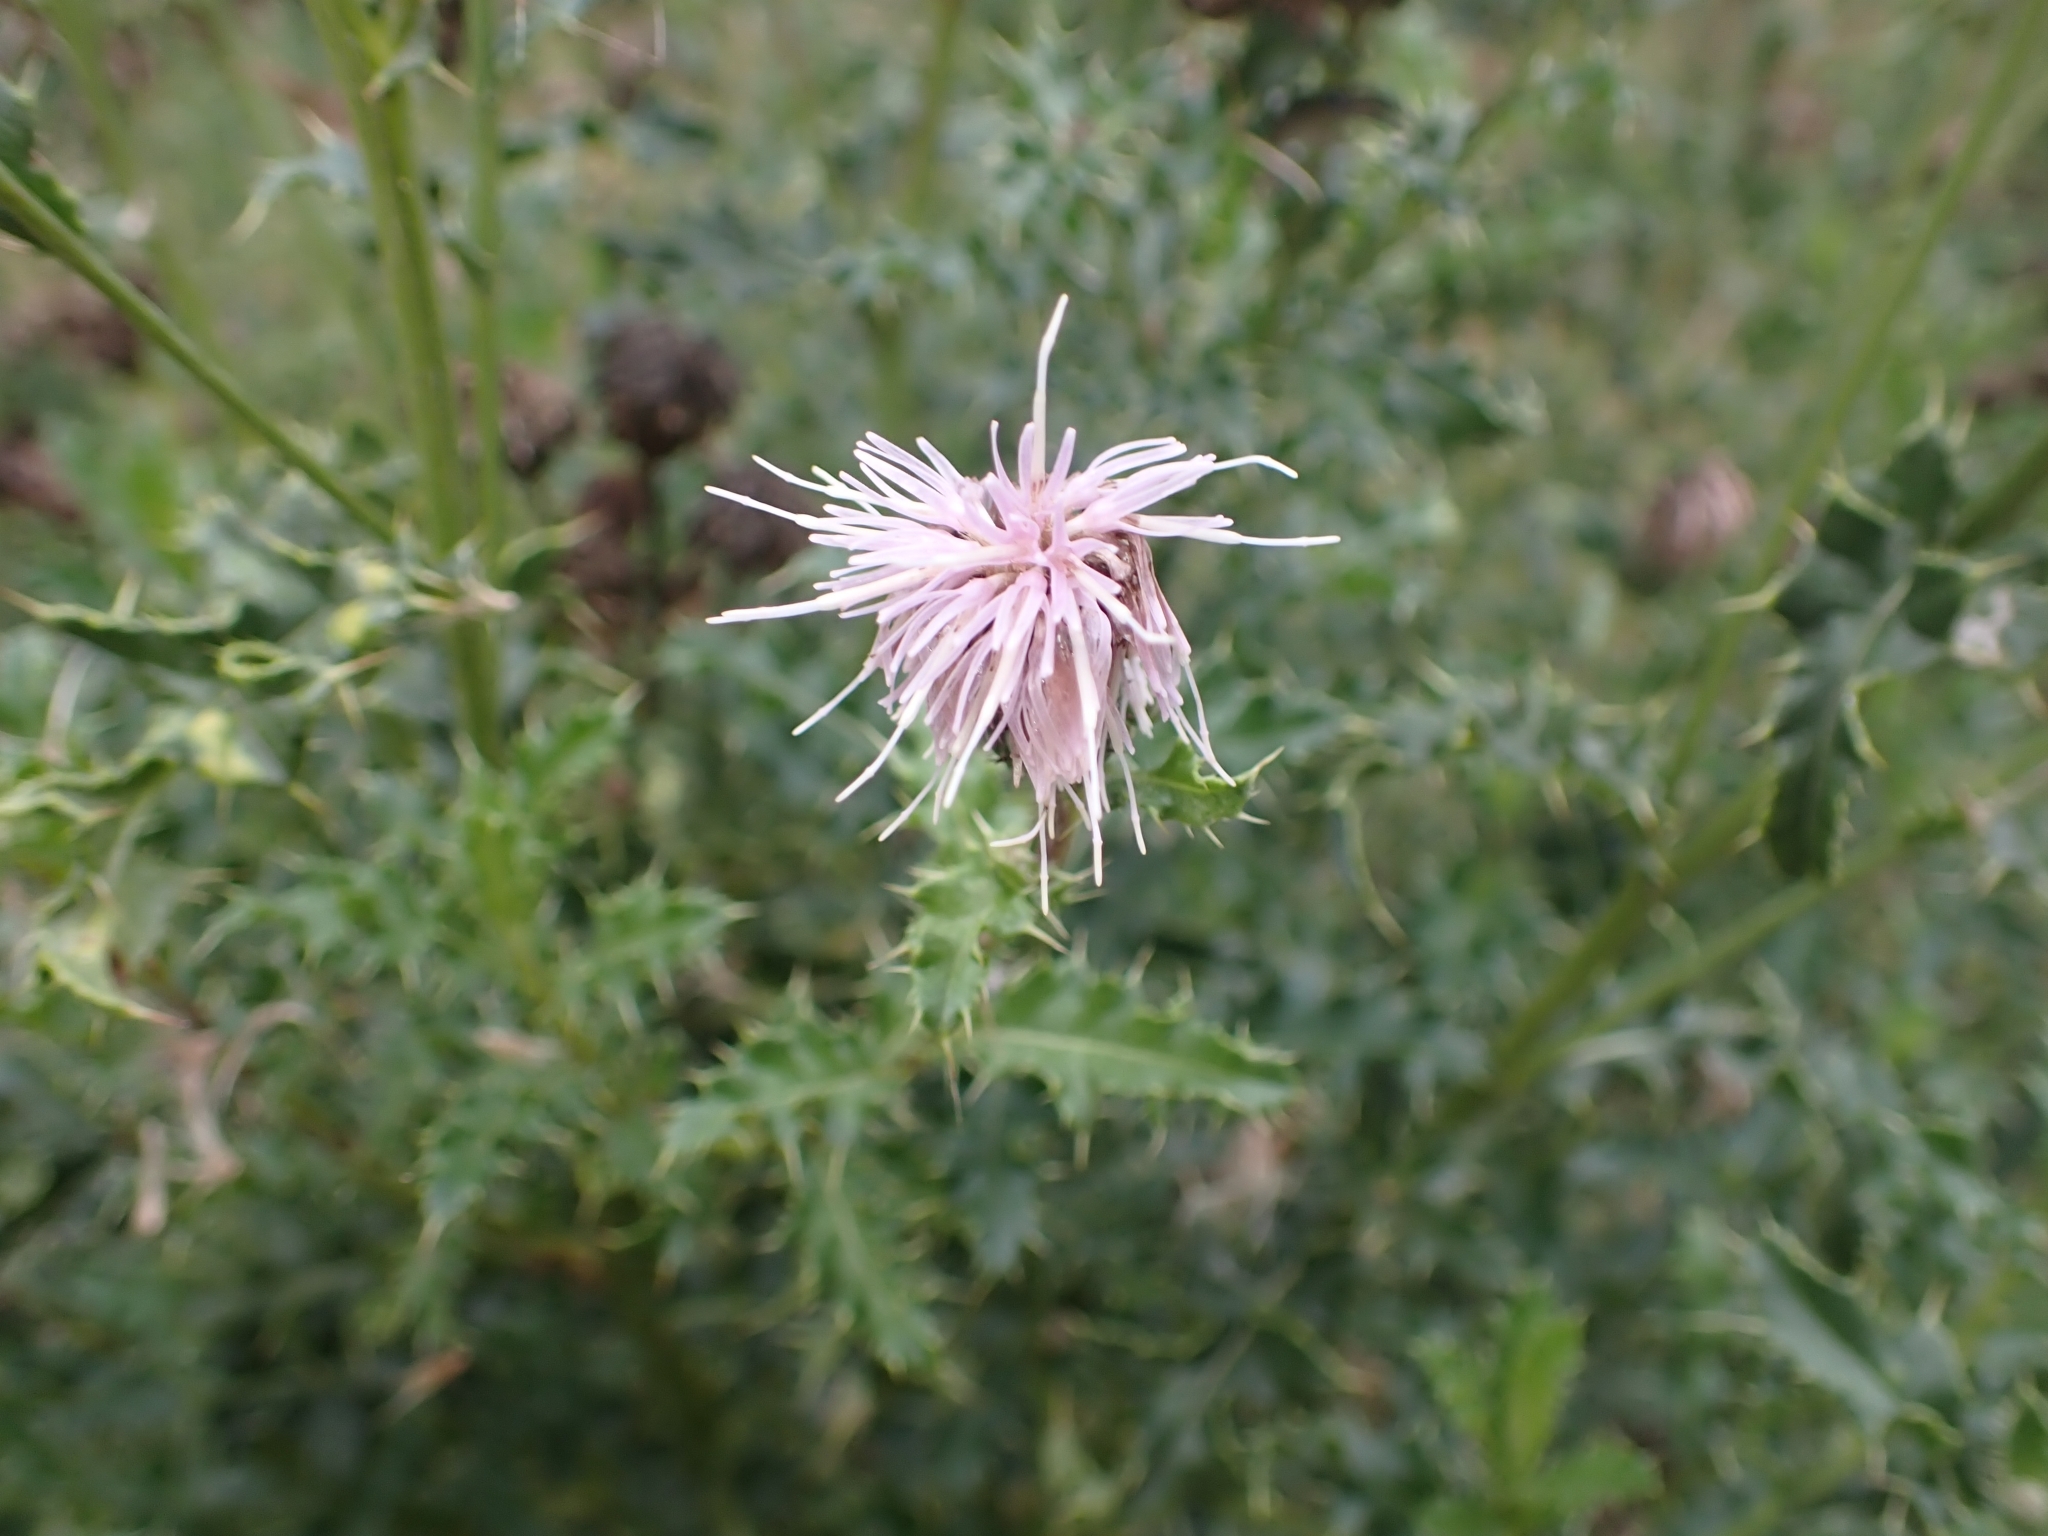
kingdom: Plantae
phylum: Tracheophyta
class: Magnoliopsida
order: Asterales
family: Asteraceae
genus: Cirsium
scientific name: Cirsium arvense
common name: Creeping thistle
